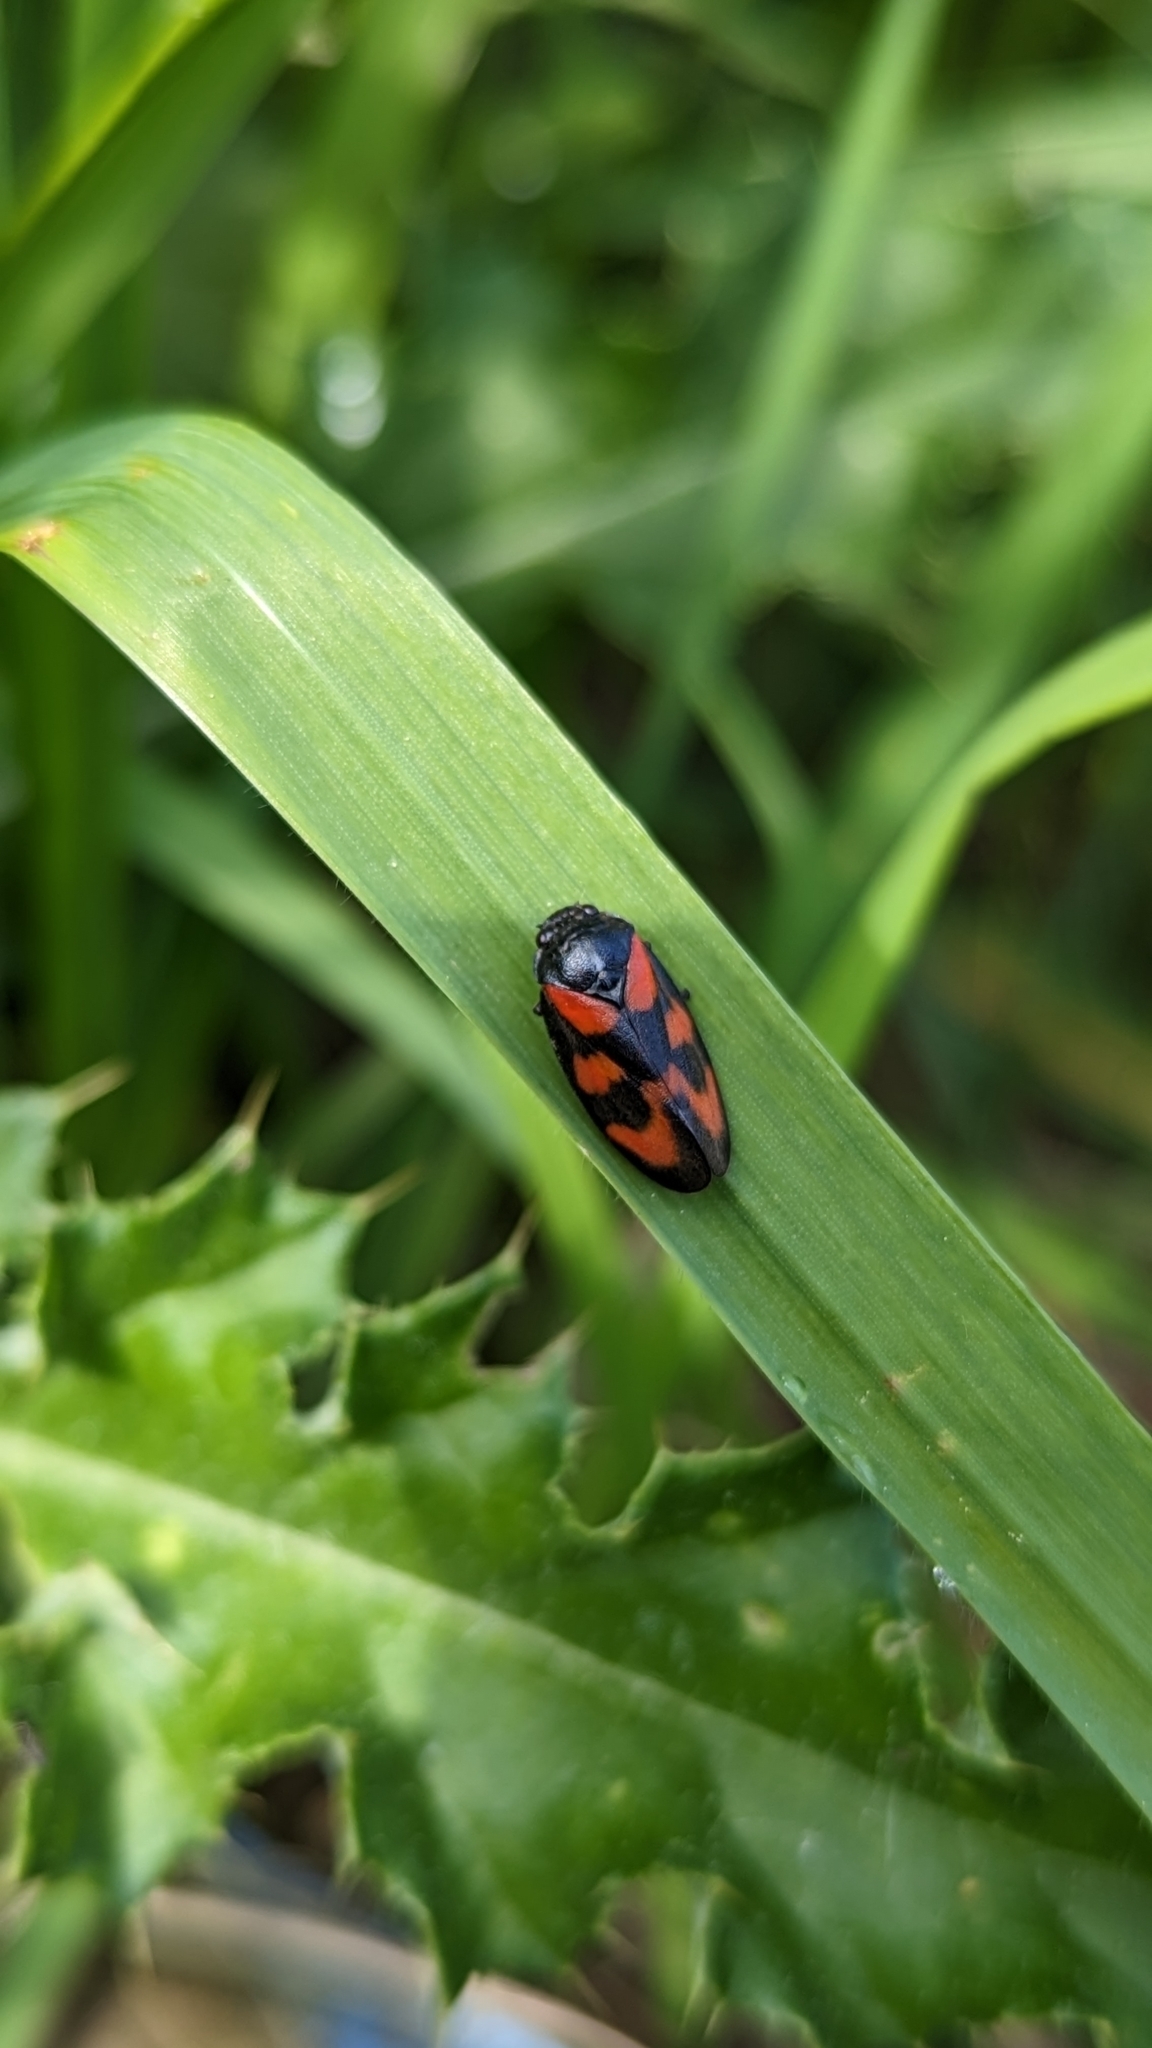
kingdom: Animalia
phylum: Arthropoda
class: Insecta
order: Hemiptera
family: Cercopidae
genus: Cercopis
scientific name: Cercopis vulnerata
